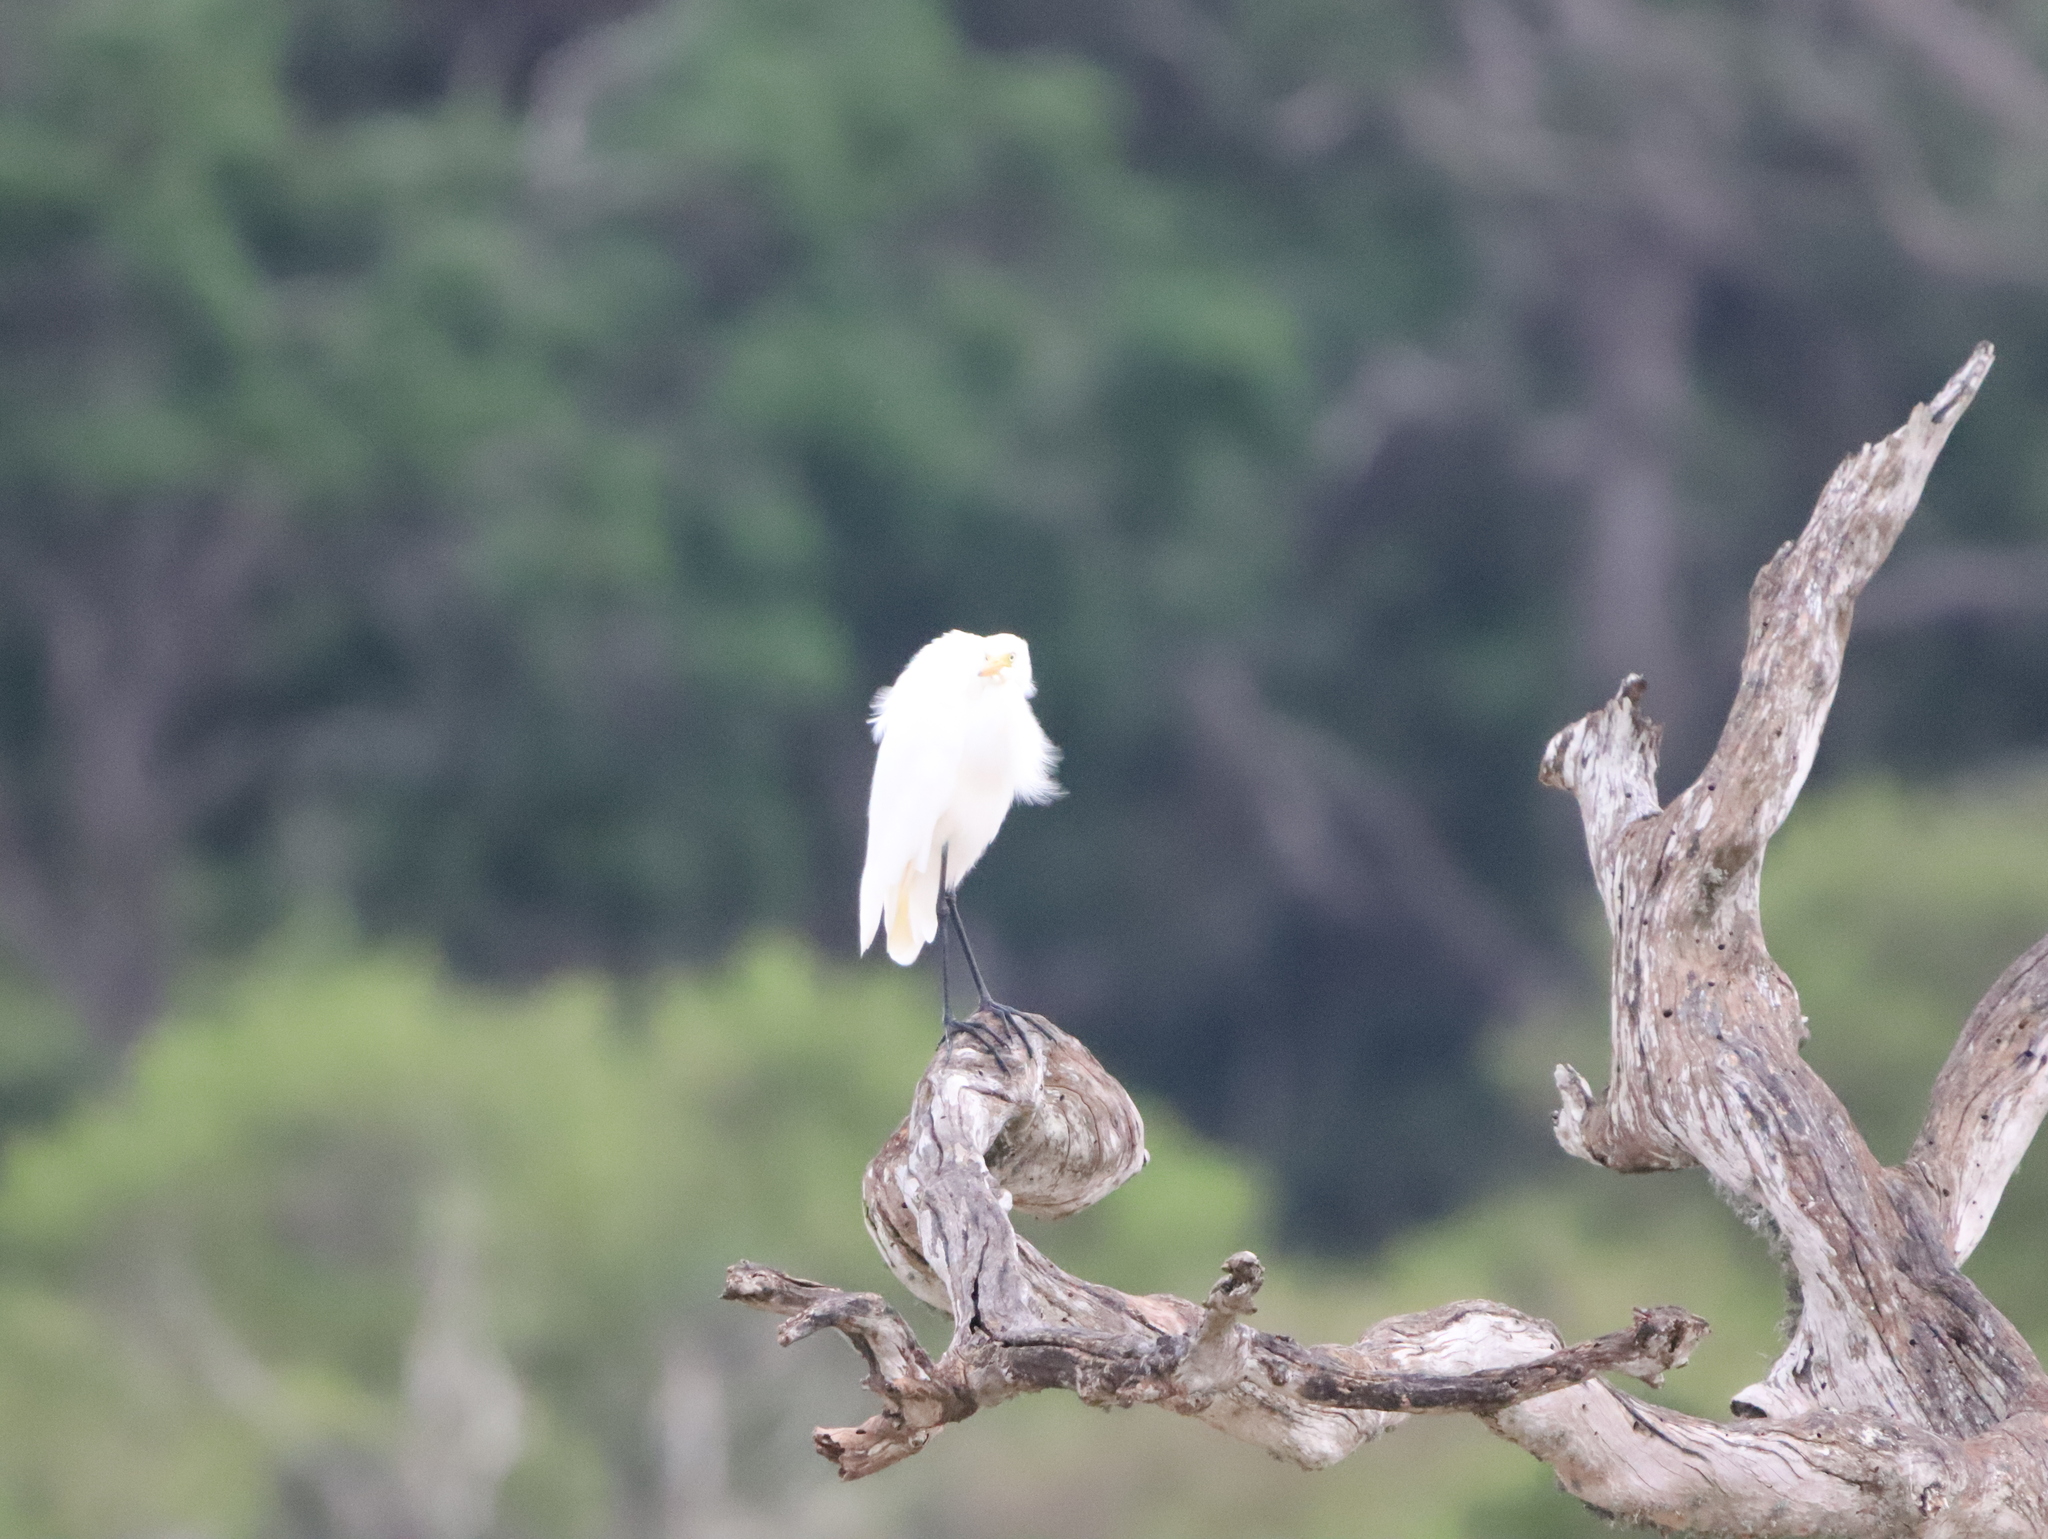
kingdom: Animalia
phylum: Chordata
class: Aves
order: Pelecaniformes
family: Ardeidae
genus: Egretta
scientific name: Egretta intermedia
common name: Intermediate egret
